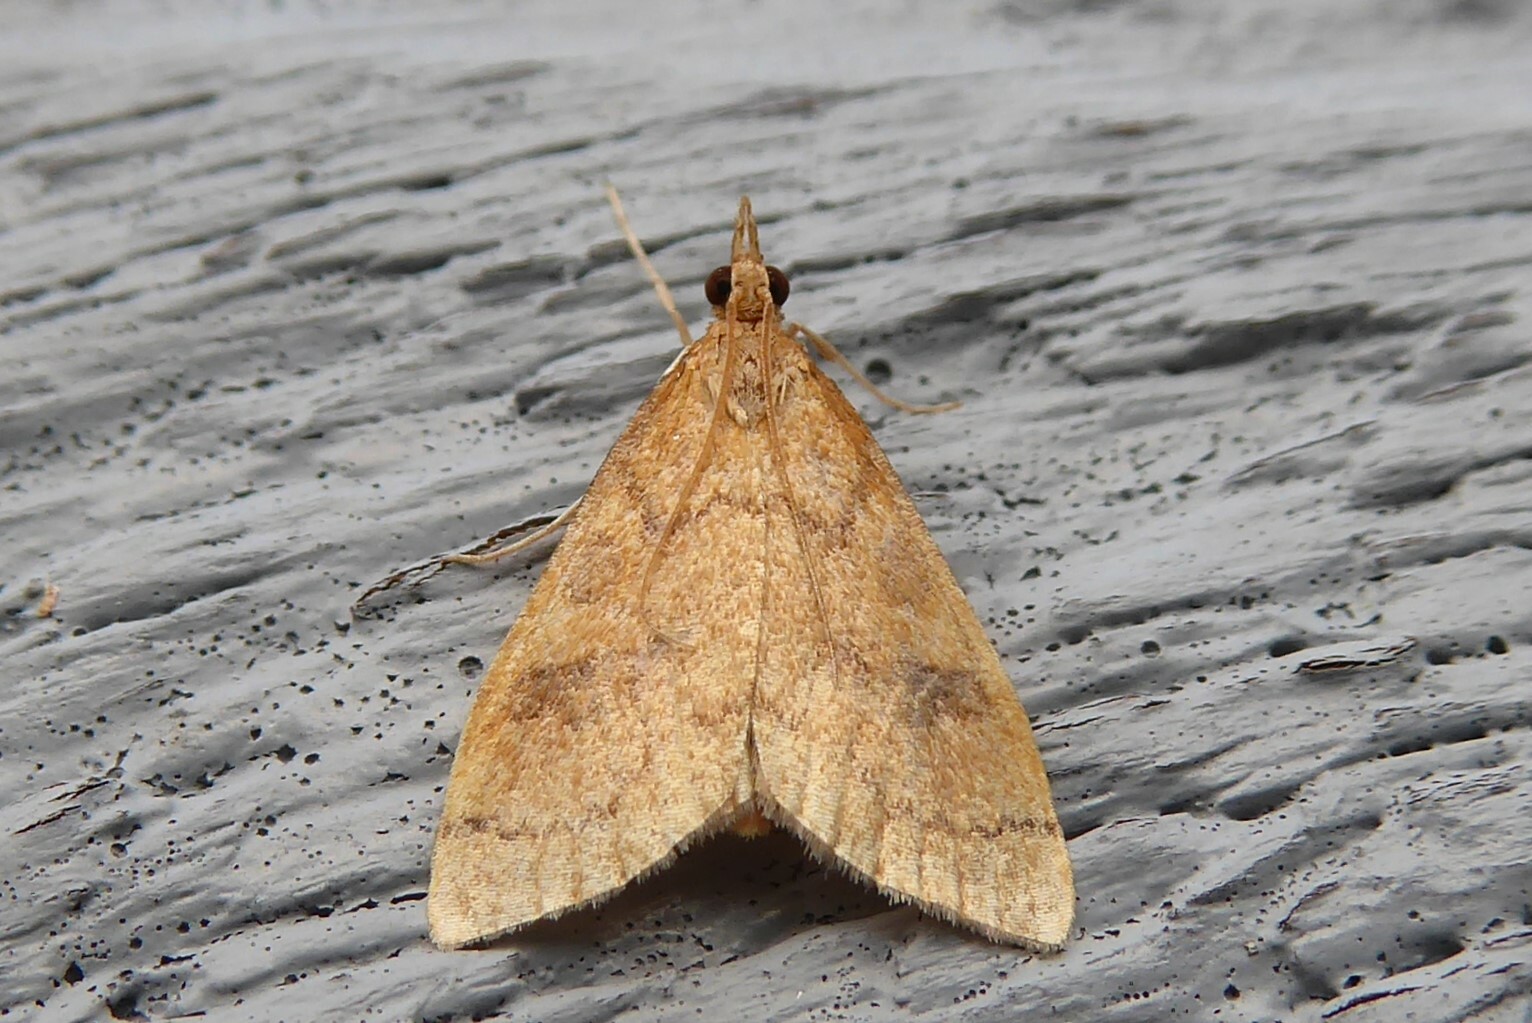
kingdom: Animalia
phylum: Arthropoda
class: Insecta
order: Lepidoptera
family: Crambidae
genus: Udea
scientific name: Udea Mnesictena flavidalis
